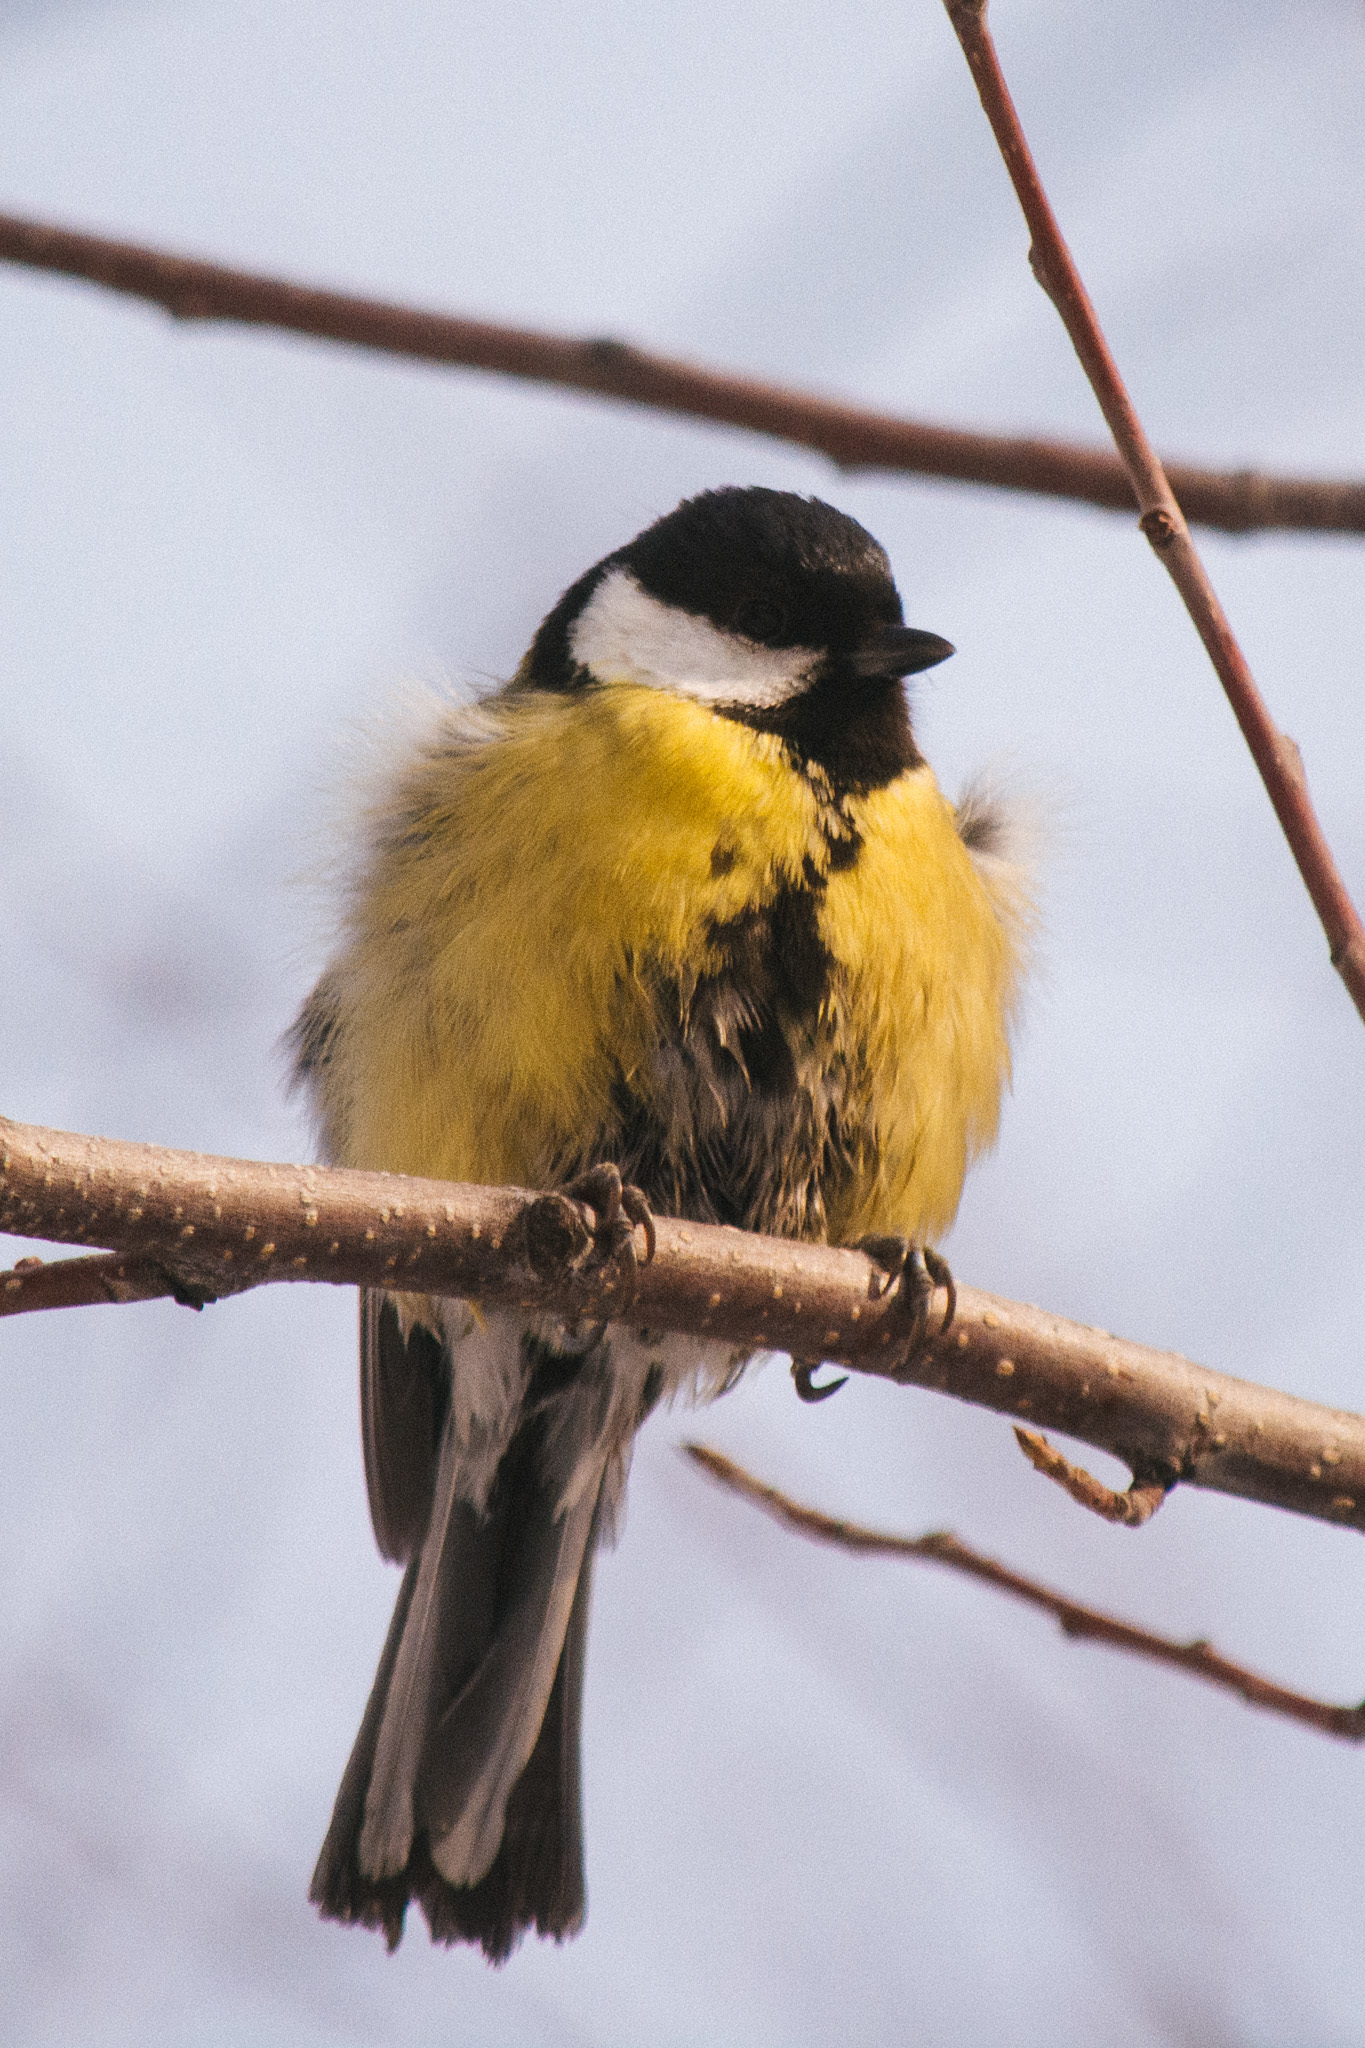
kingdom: Animalia
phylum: Chordata
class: Aves
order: Passeriformes
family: Paridae
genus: Parus
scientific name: Parus major
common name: Great tit
